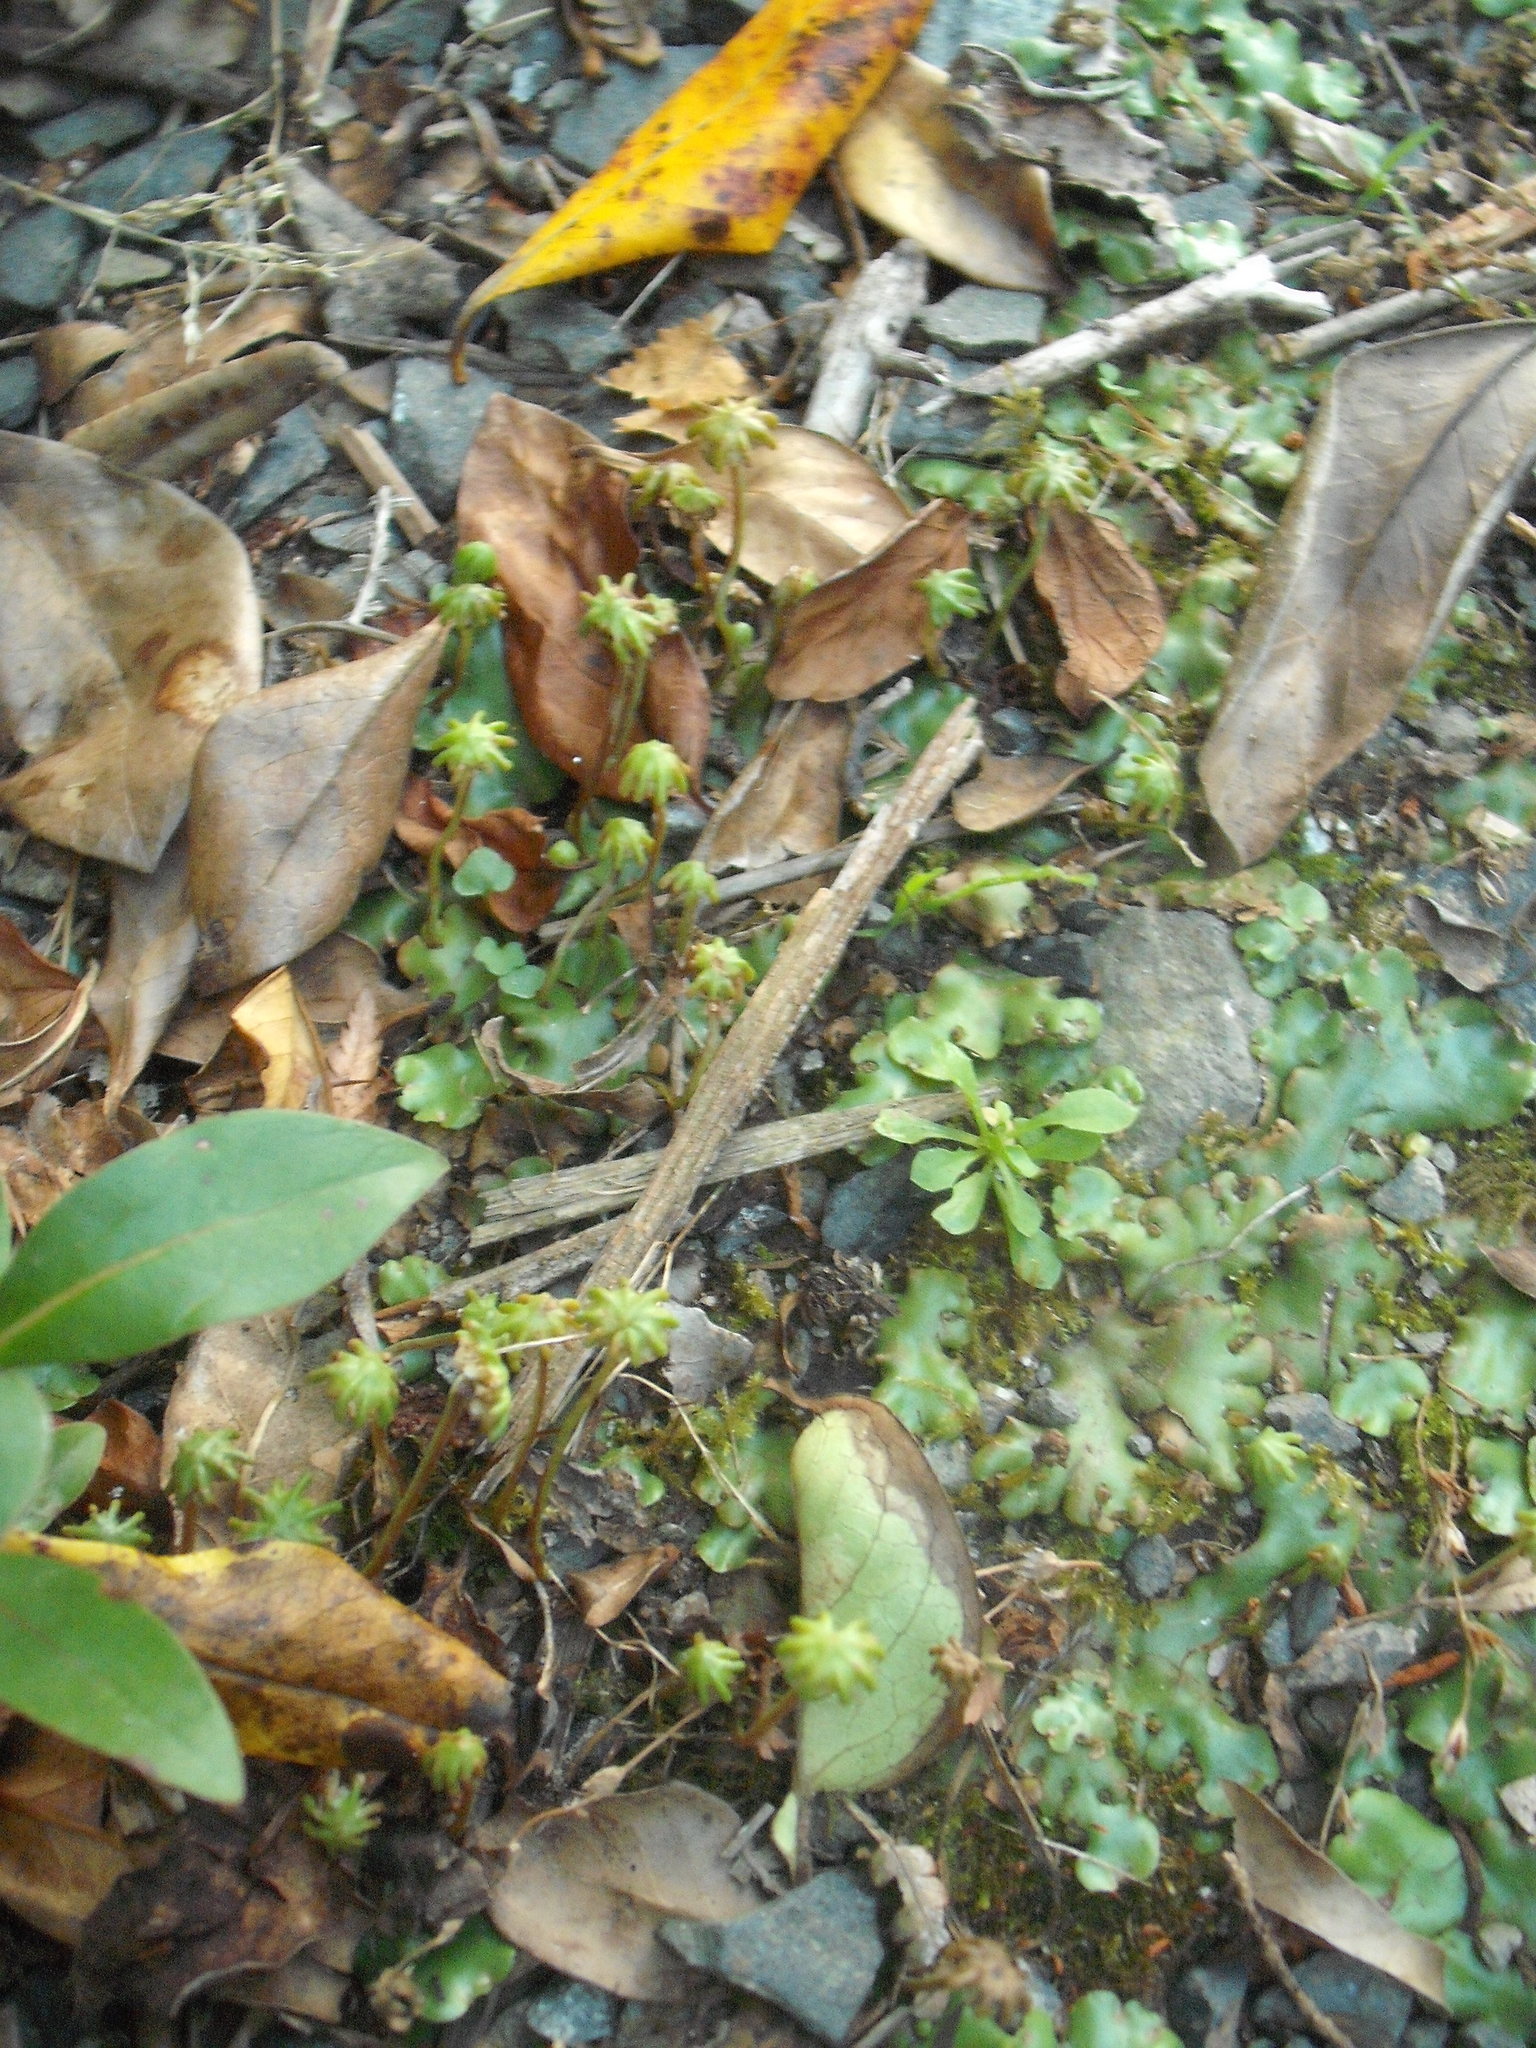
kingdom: Plantae
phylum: Marchantiophyta
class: Marchantiopsida
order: Marchantiales
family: Marchantiaceae
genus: Marchantia
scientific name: Marchantia berteroana
